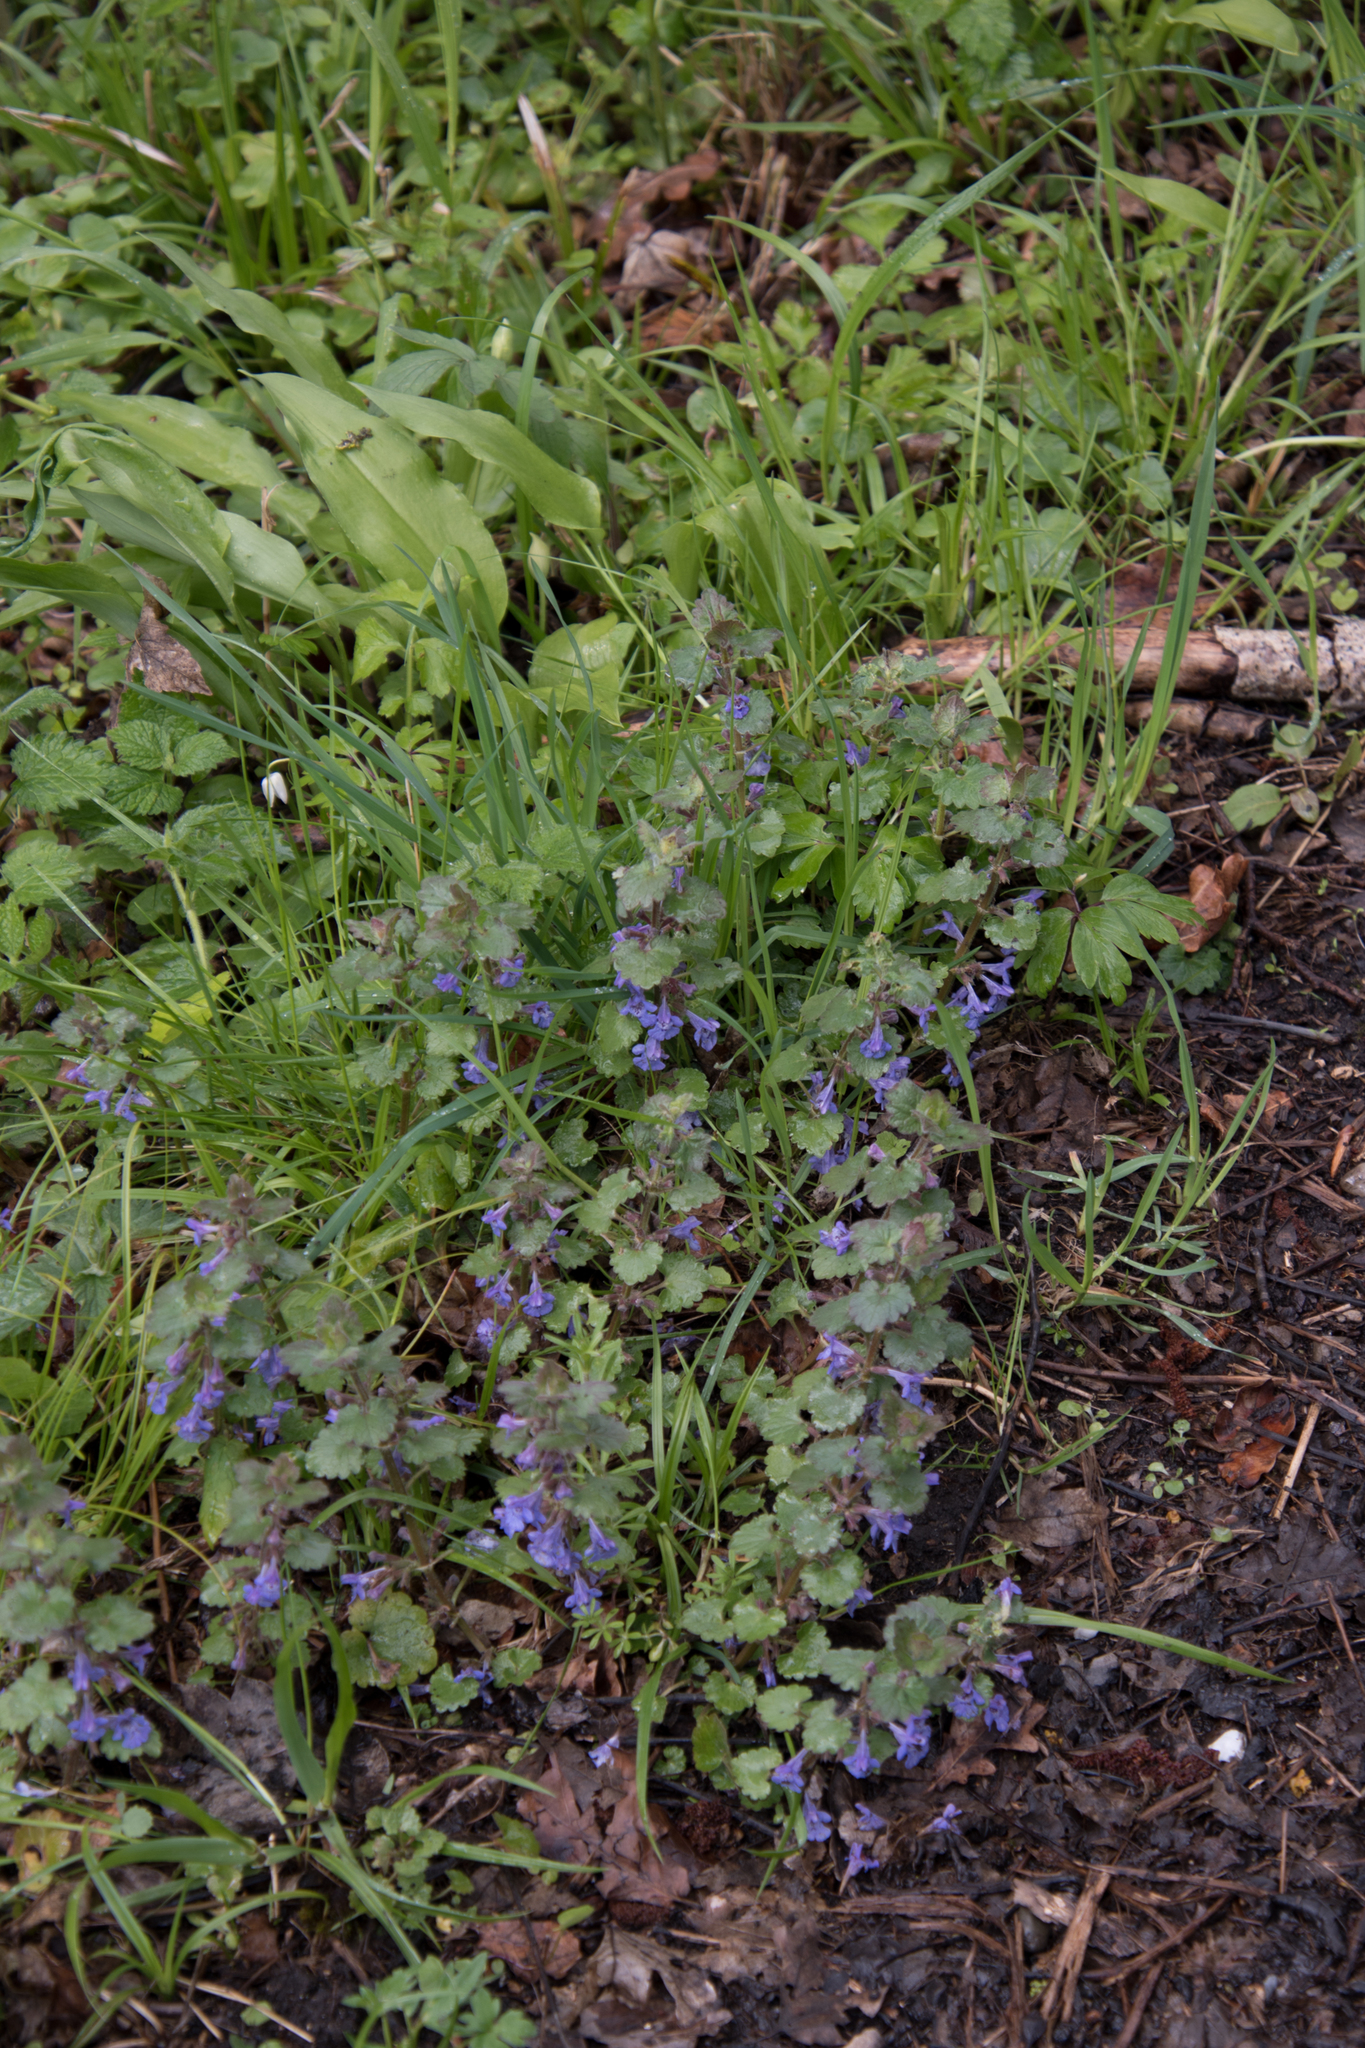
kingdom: Plantae
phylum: Tracheophyta
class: Magnoliopsida
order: Lamiales
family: Lamiaceae
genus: Glechoma
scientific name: Glechoma hederacea
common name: Ground ivy
